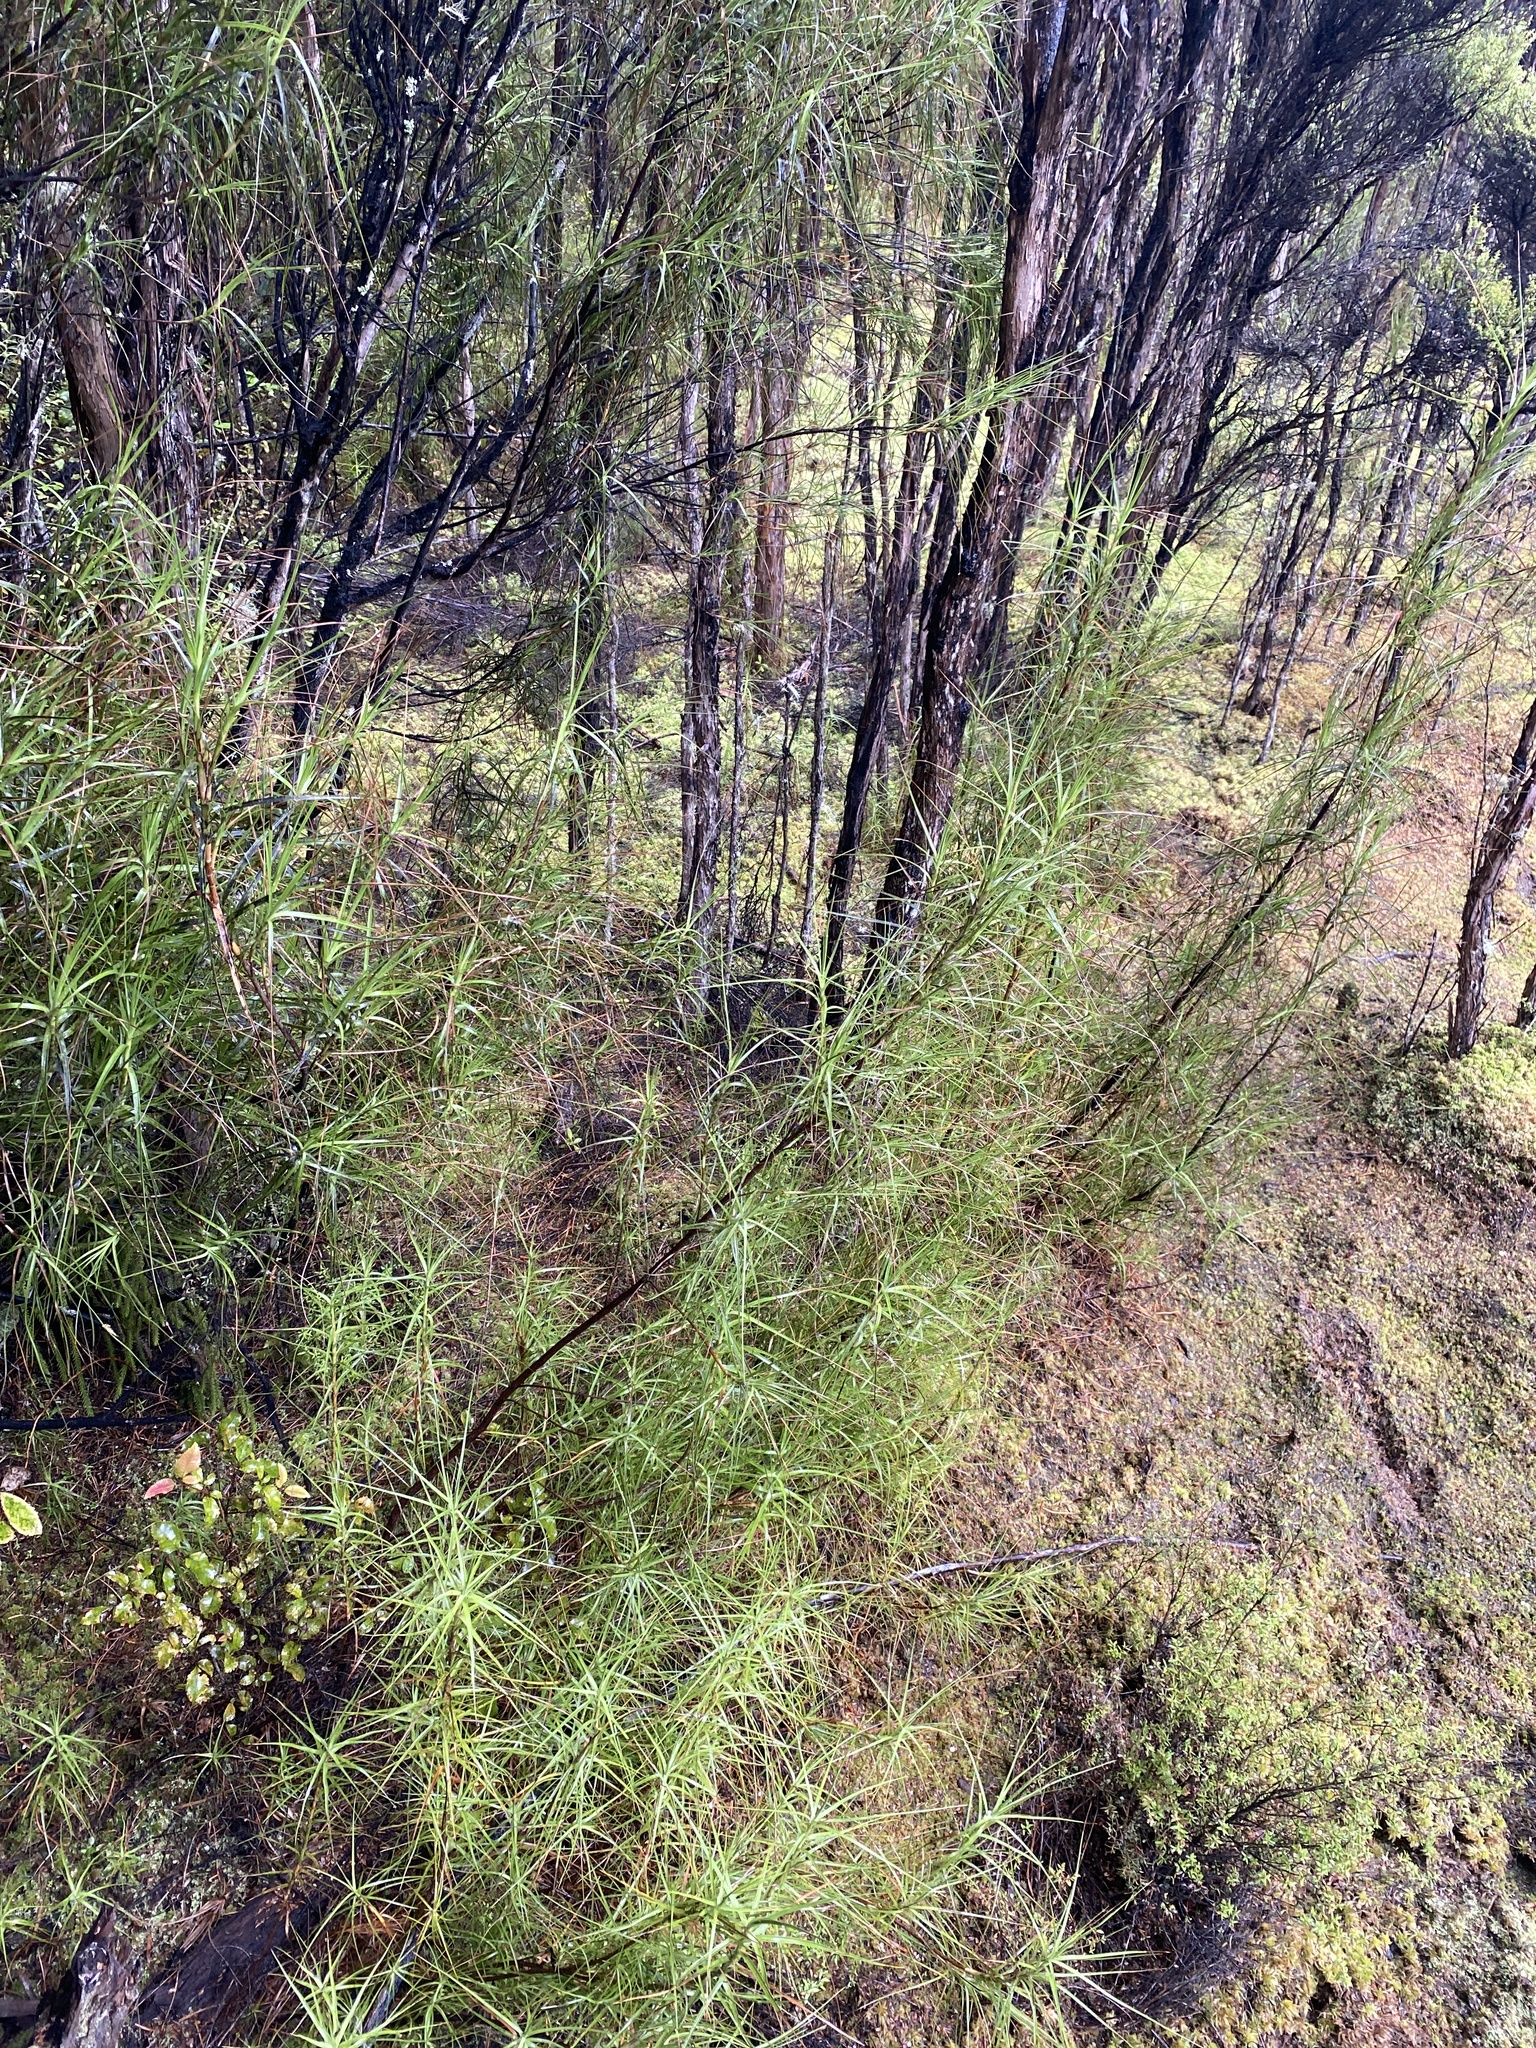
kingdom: Plantae
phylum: Tracheophyta
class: Magnoliopsida
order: Ericales
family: Ericaceae
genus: Dracophyllum
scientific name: Dracophyllum longifolium
